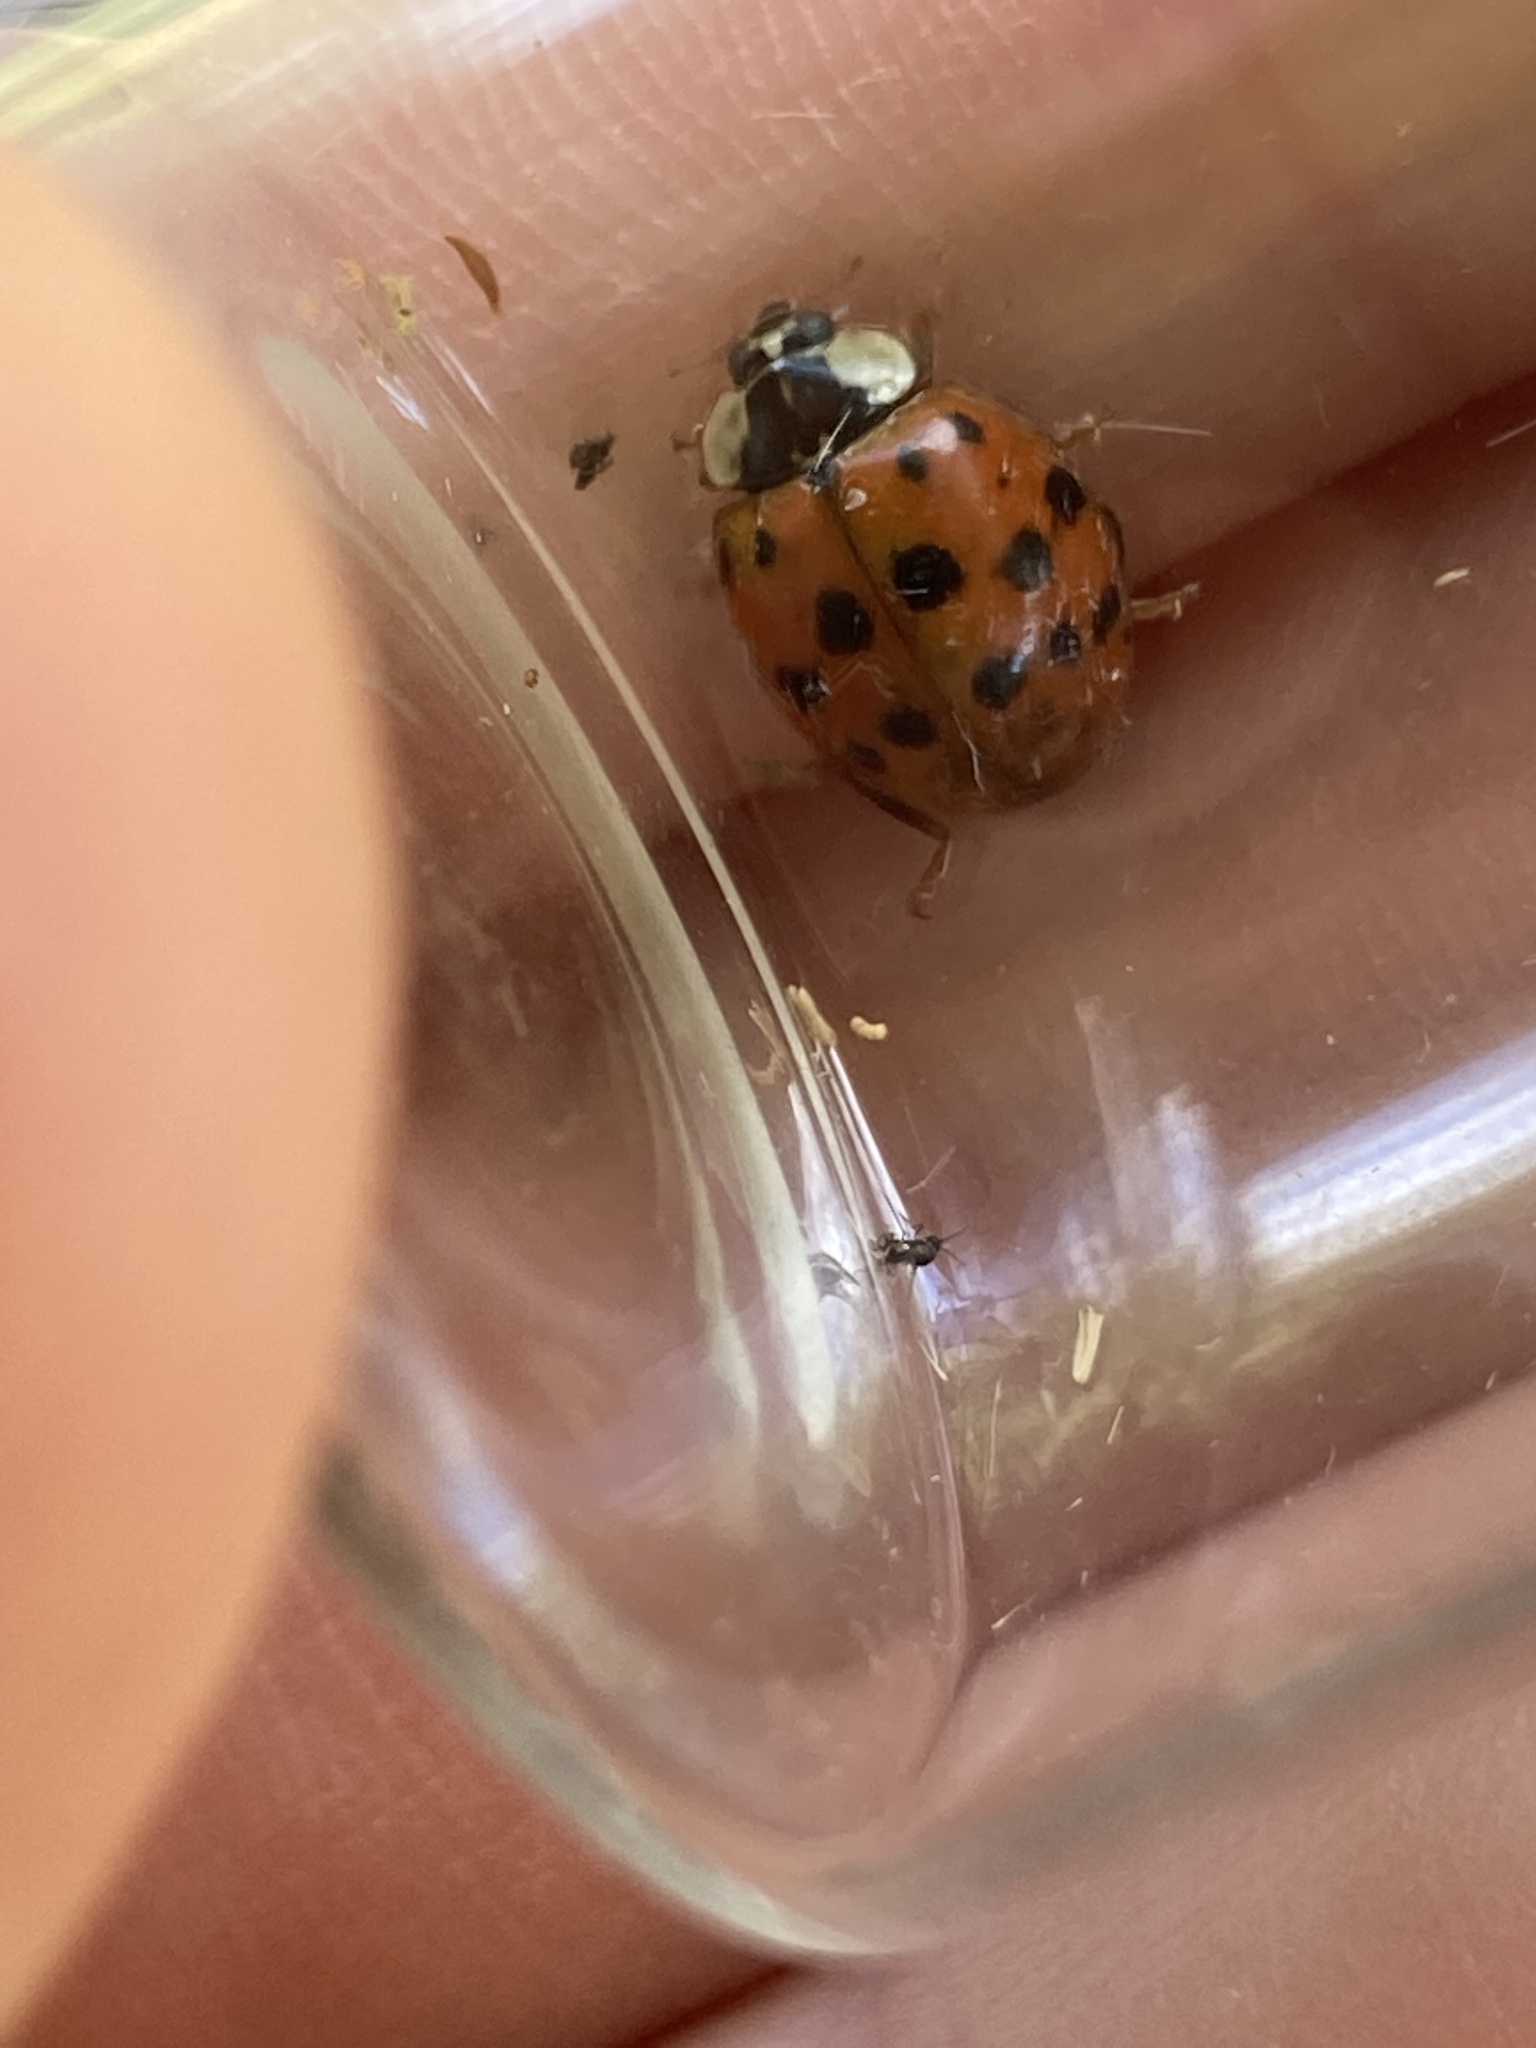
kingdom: Animalia
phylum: Arthropoda
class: Insecta
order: Coleoptera
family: Coccinellidae
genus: Harmonia
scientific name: Harmonia axyridis
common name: Harlequin ladybird
